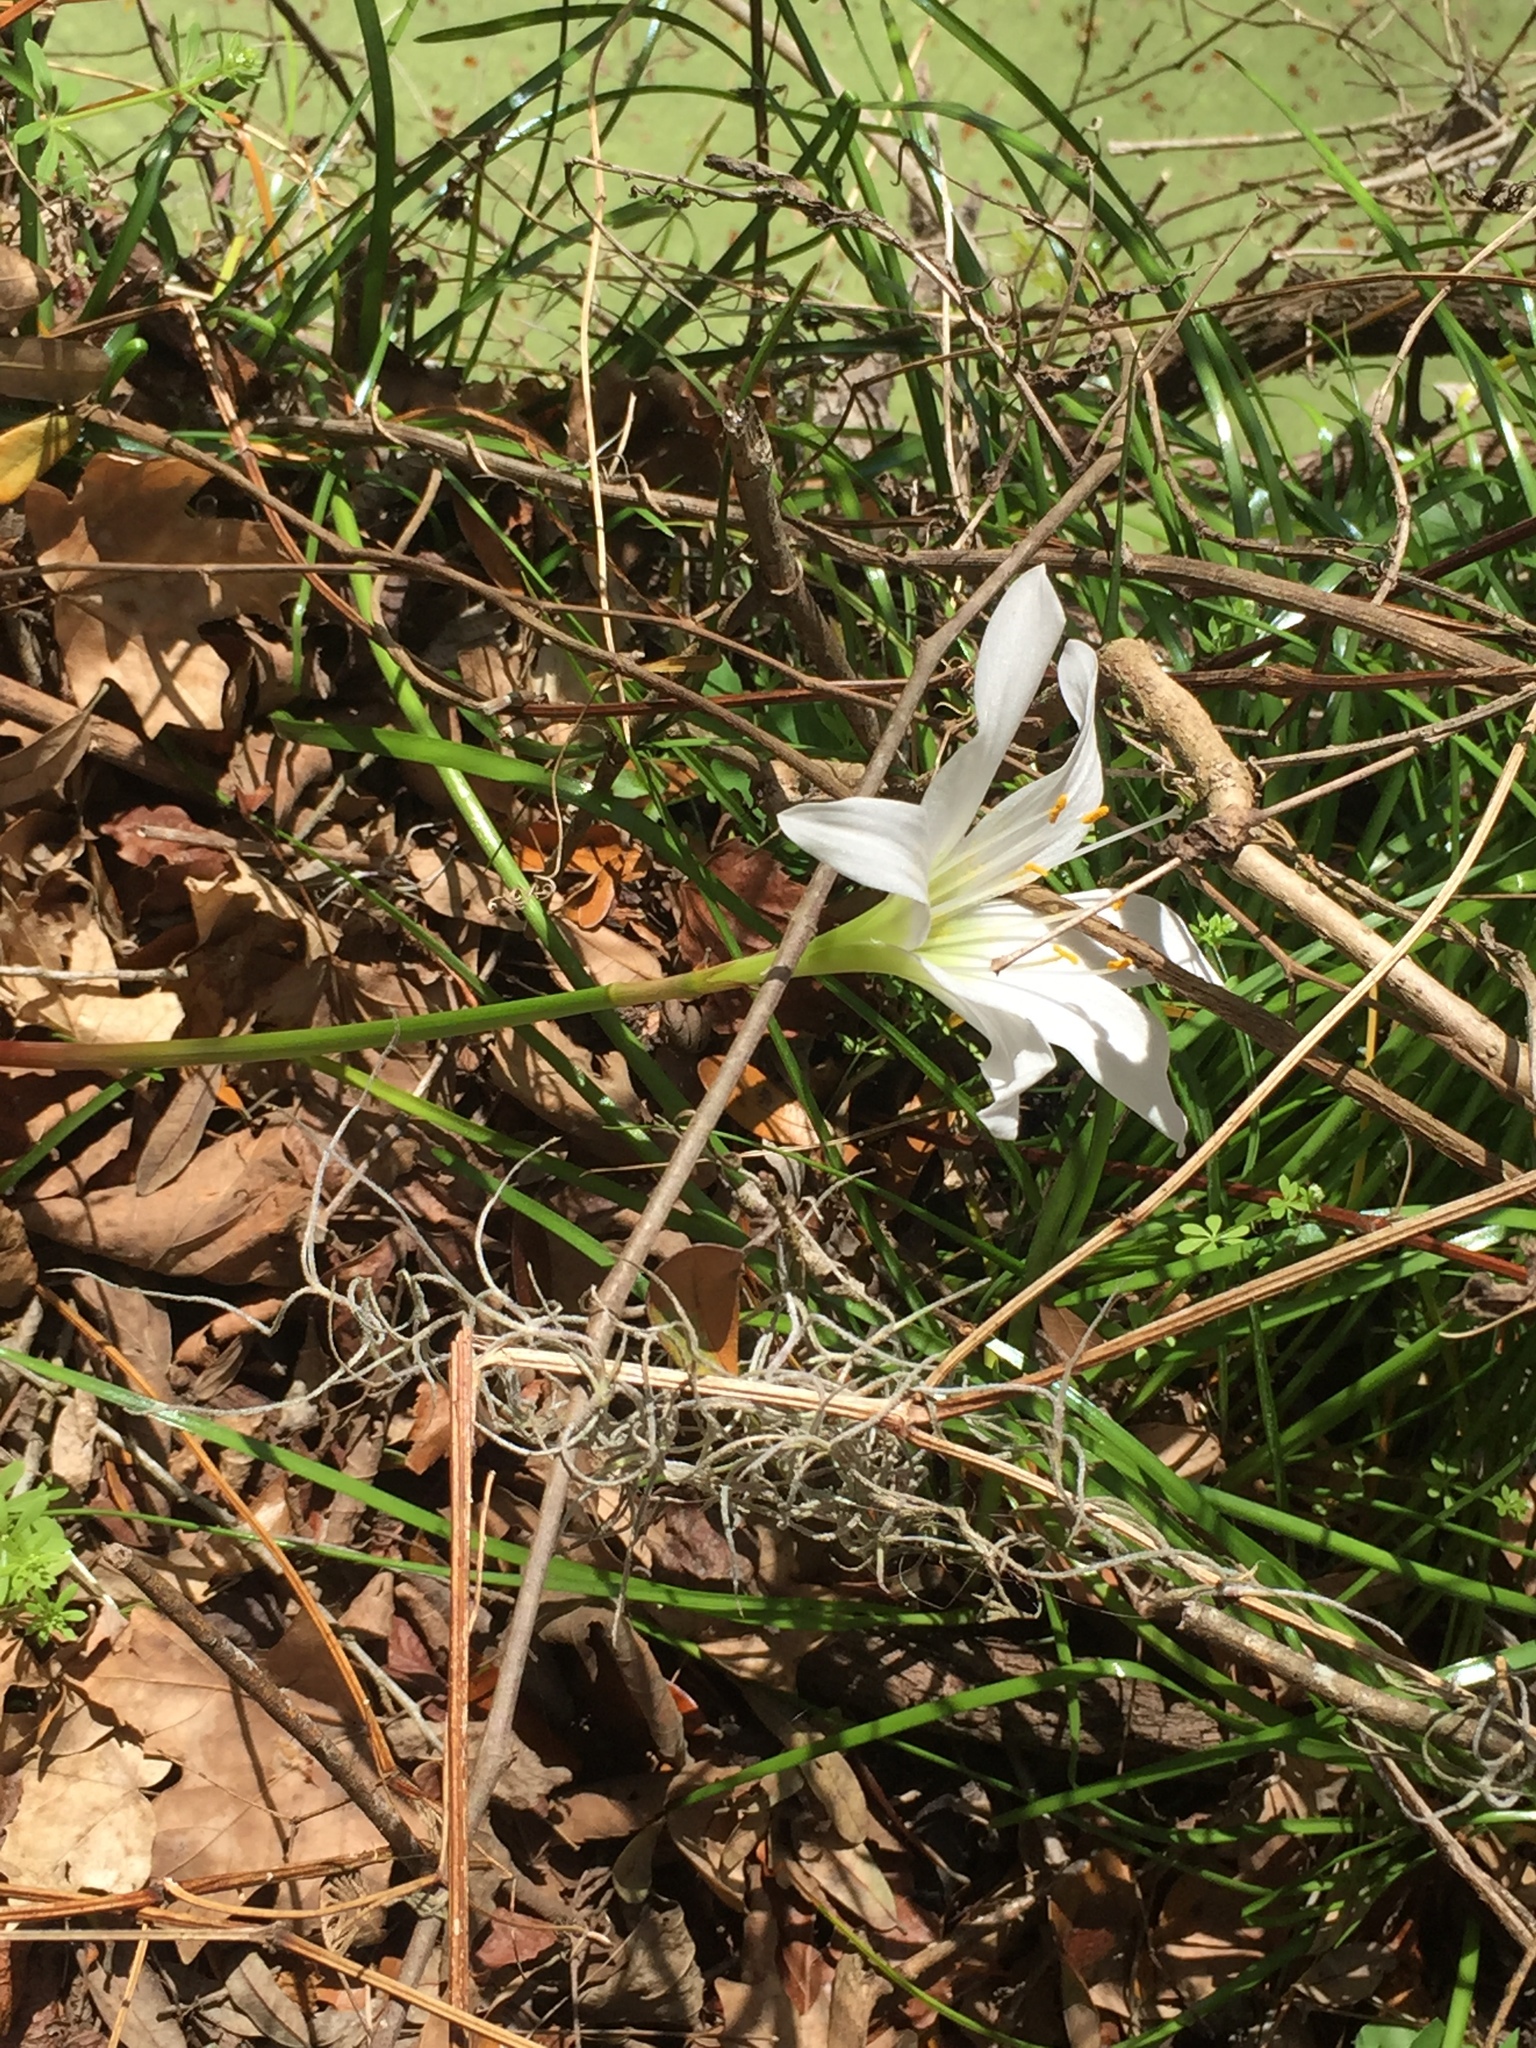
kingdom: Plantae
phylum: Tracheophyta
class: Liliopsida
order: Asparagales
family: Amaryllidaceae
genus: Zephyranthes
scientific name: Zephyranthes atamasco
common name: Atamasco lily
